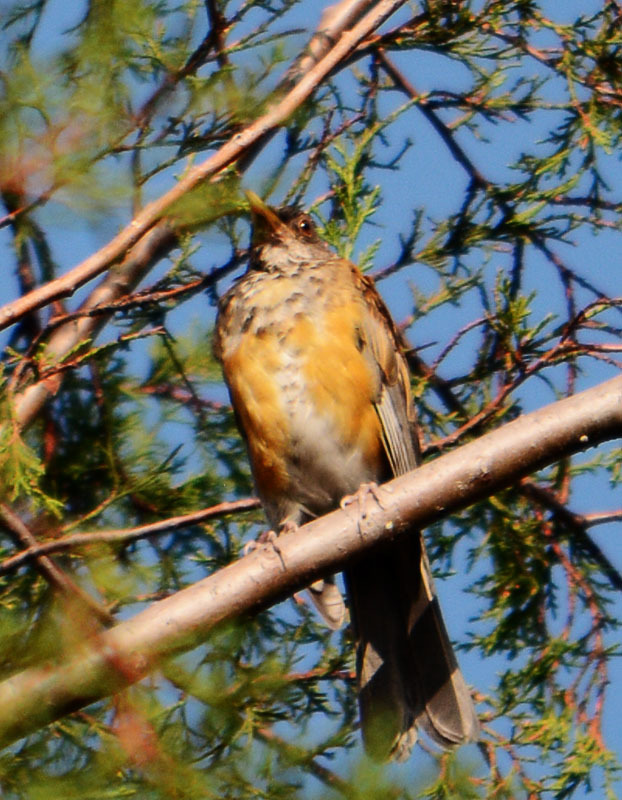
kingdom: Animalia
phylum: Chordata
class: Aves
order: Passeriformes
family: Turdidae
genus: Turdus
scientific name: Turdus rufopalliatus
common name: Rufous-backed robin
